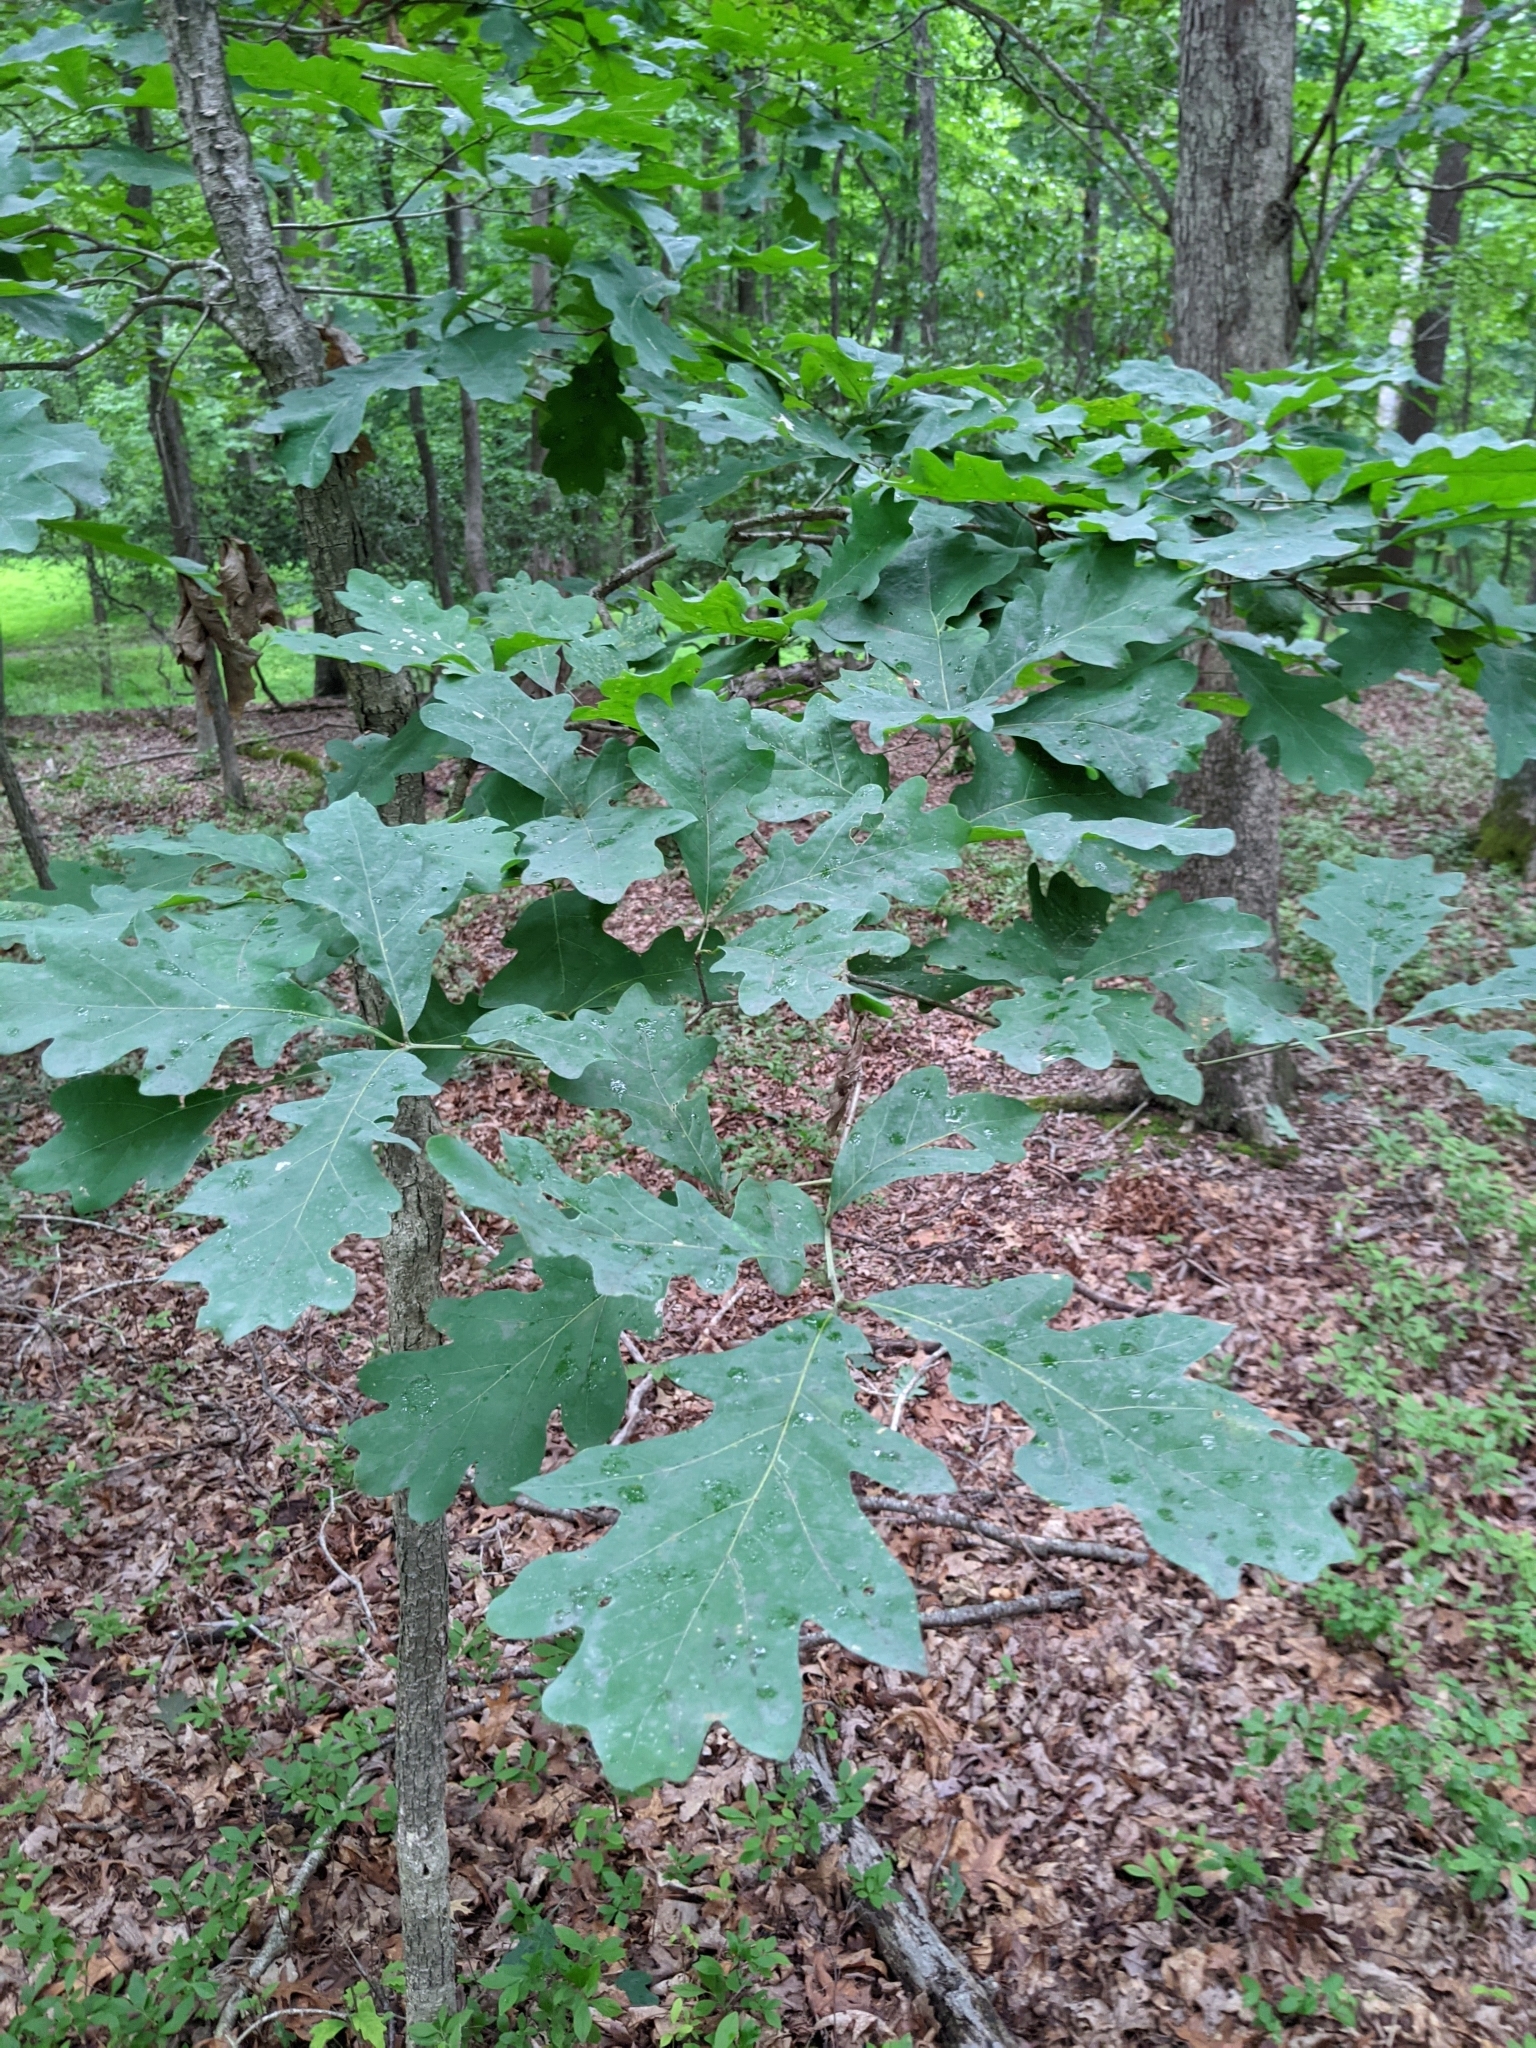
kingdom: Plantae
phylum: Tracheophyta
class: Magnoliopsida
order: Fagales
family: Fagaceae
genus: Quercus
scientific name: Quercus alba
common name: White oak
